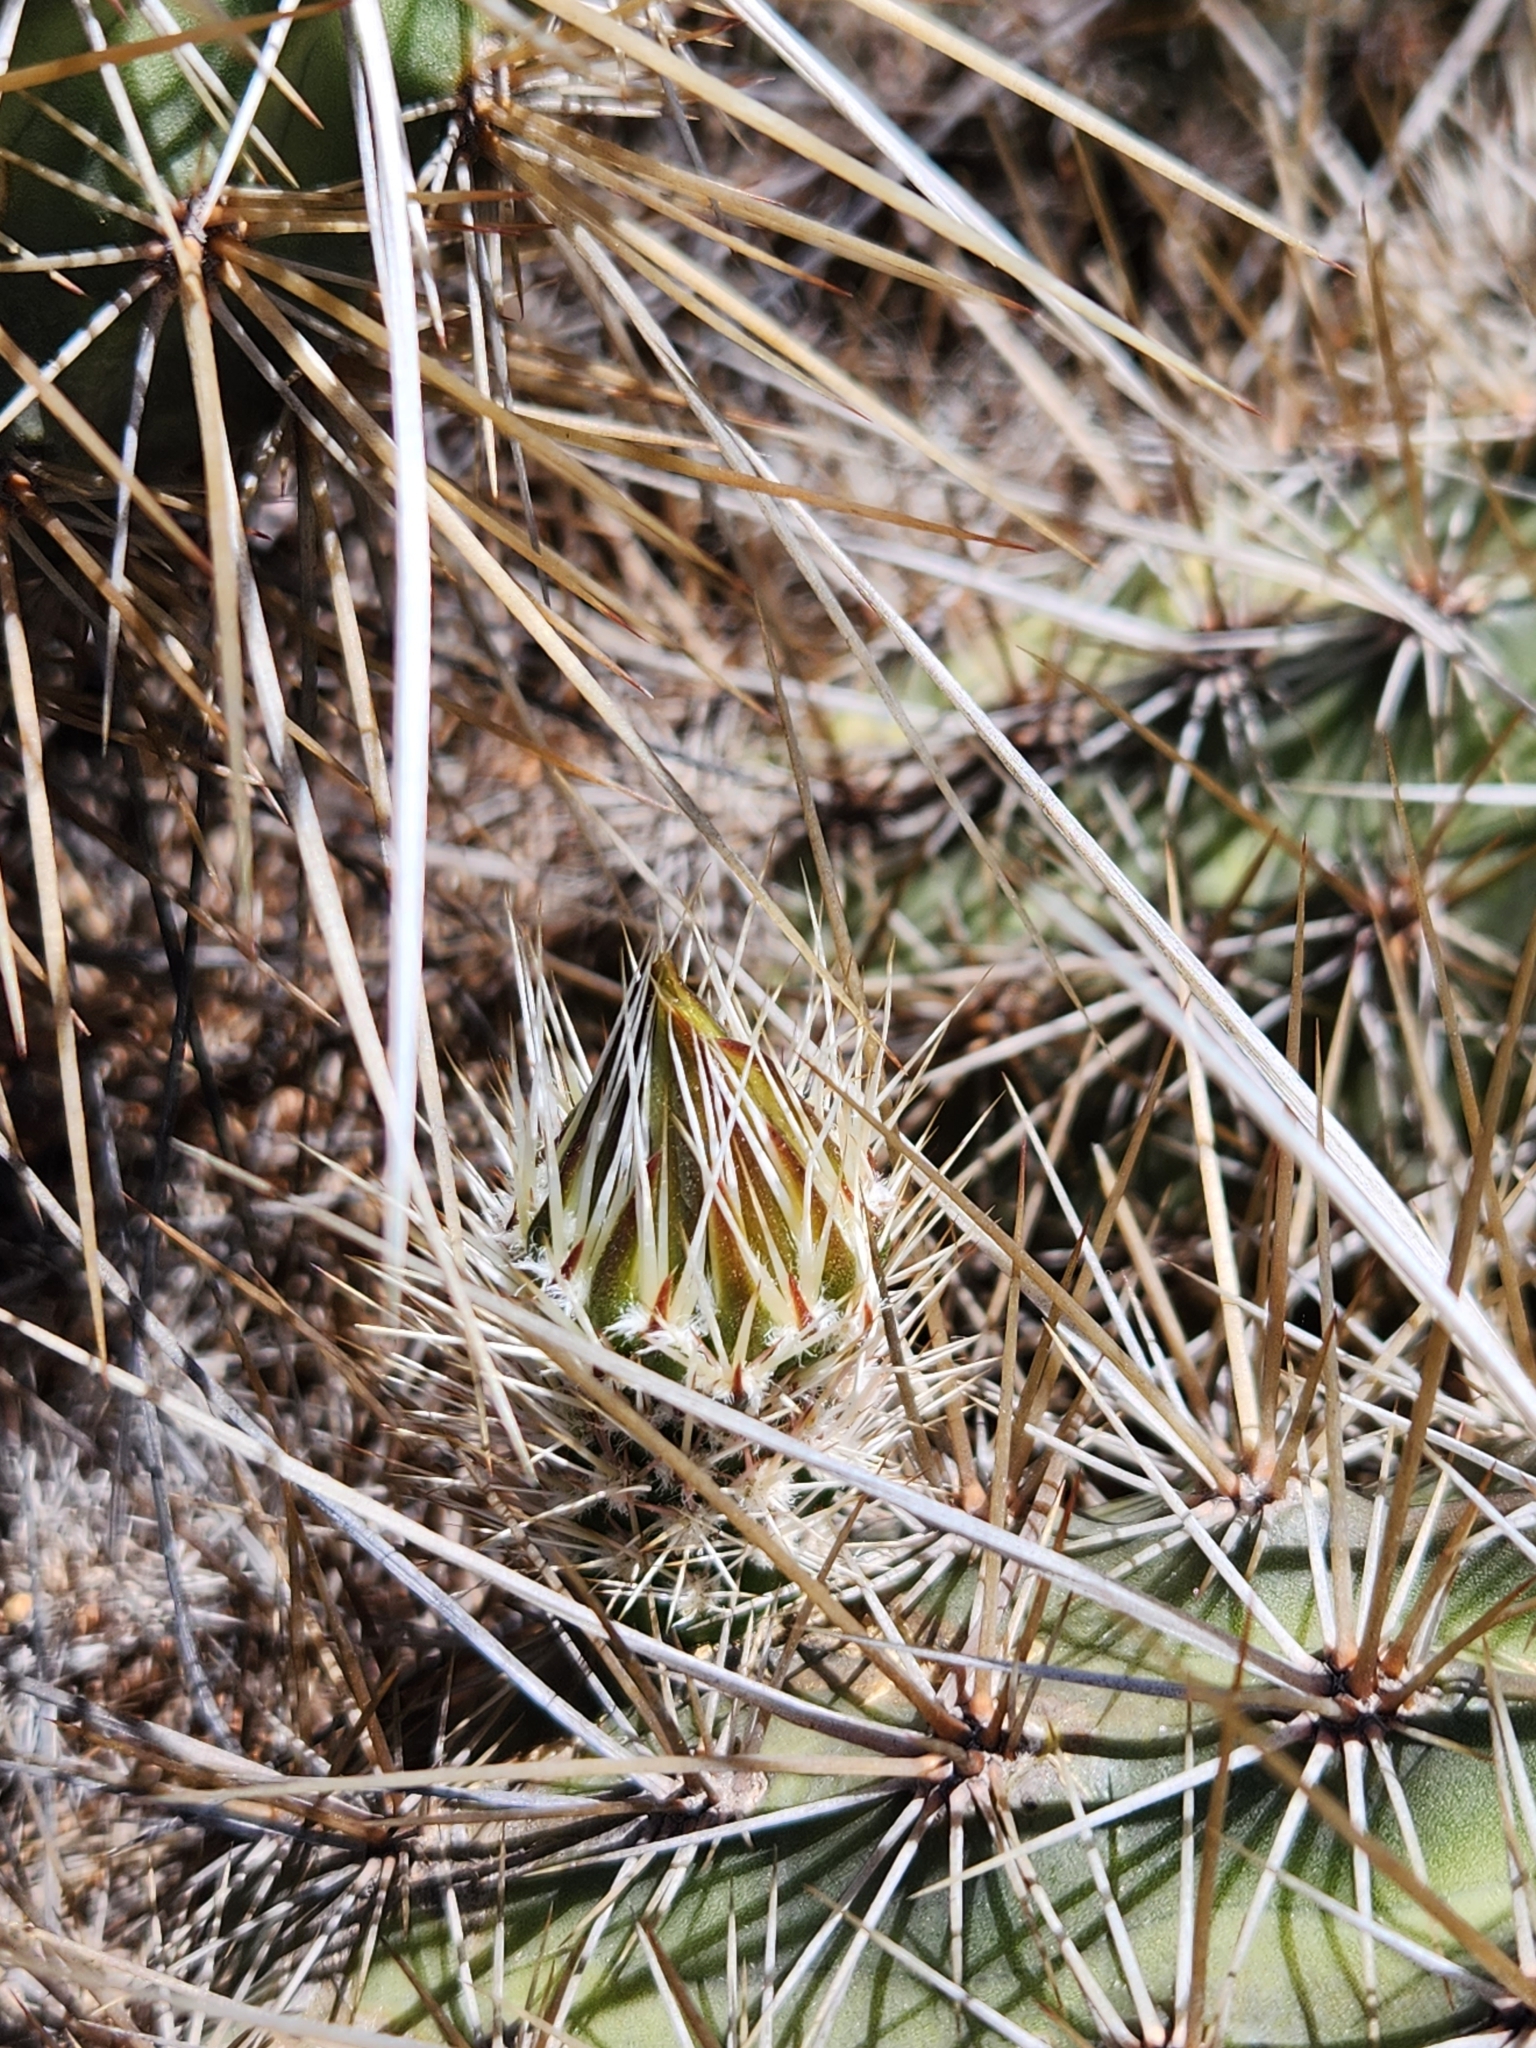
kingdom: Plantae
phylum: Tracheophyta
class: Magnoliopsida
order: Caryophyllales
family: Cactaceae
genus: Echinocereus
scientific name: Echinocereus engelmannii
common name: Engelmann's hedgehog cactus
